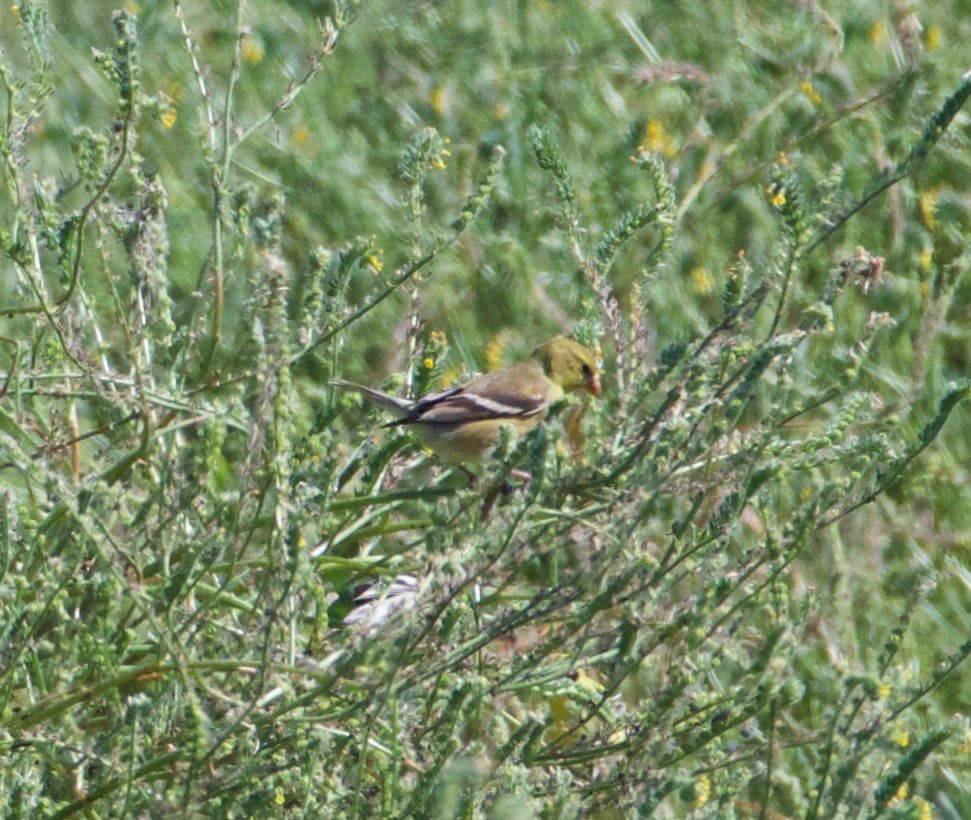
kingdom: Animalia
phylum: Chordata
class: Aves
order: Passeriformes
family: Fringillidae
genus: Spinus
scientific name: Spinus tristis
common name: American goldfinch
